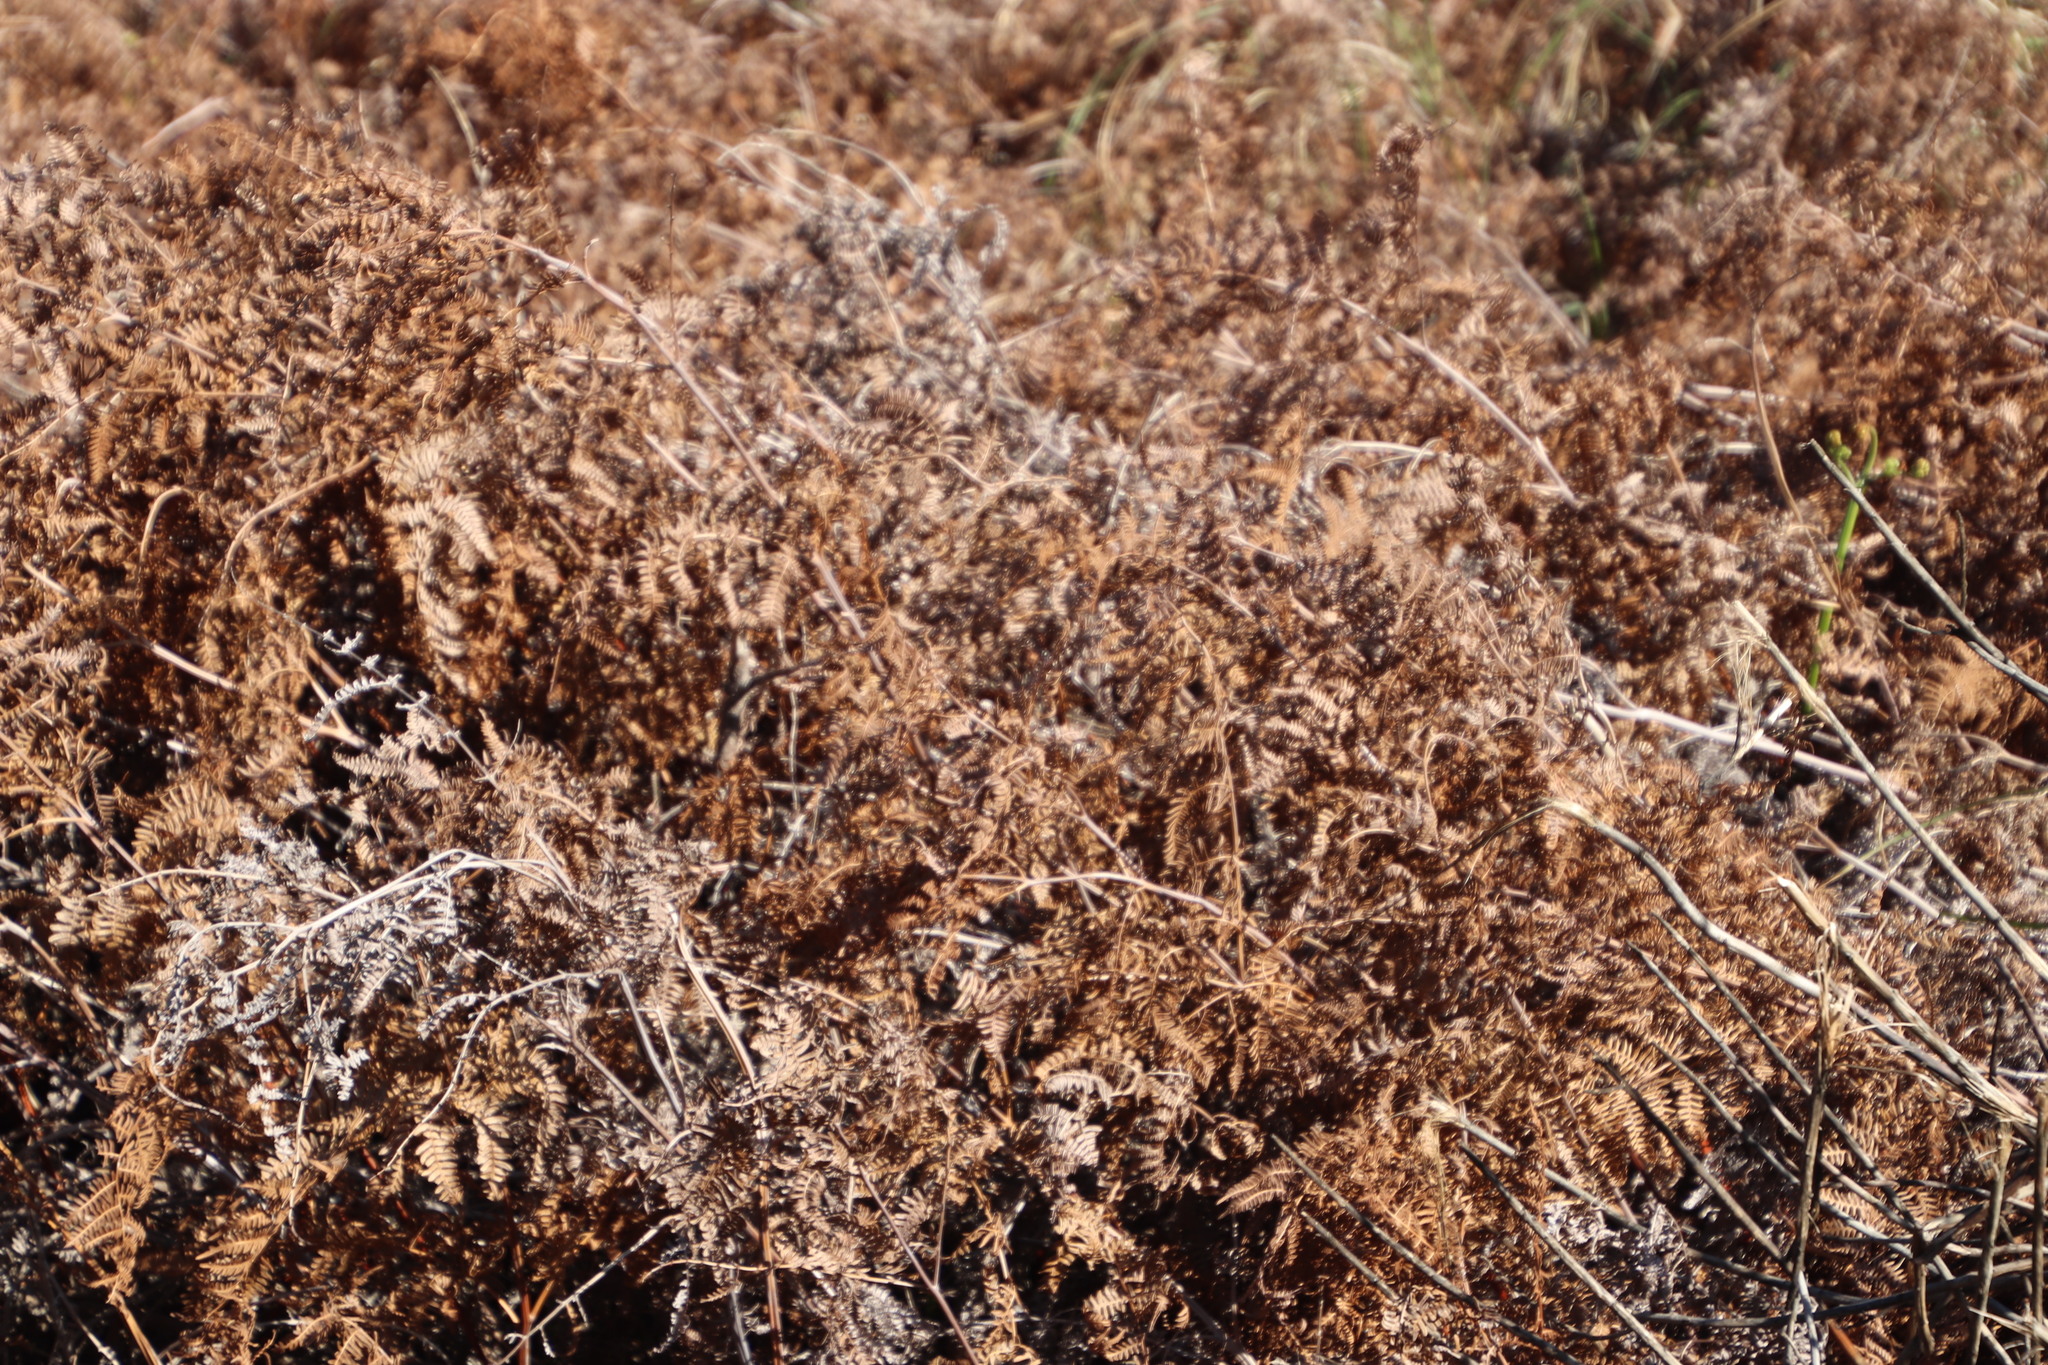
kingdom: Plantae
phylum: Tracheophyta
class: Polypodiopsida
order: Polypodiales
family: Dennstaedtiaceae
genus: Pteridium
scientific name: Pteridium aquilinum
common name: Bracken
